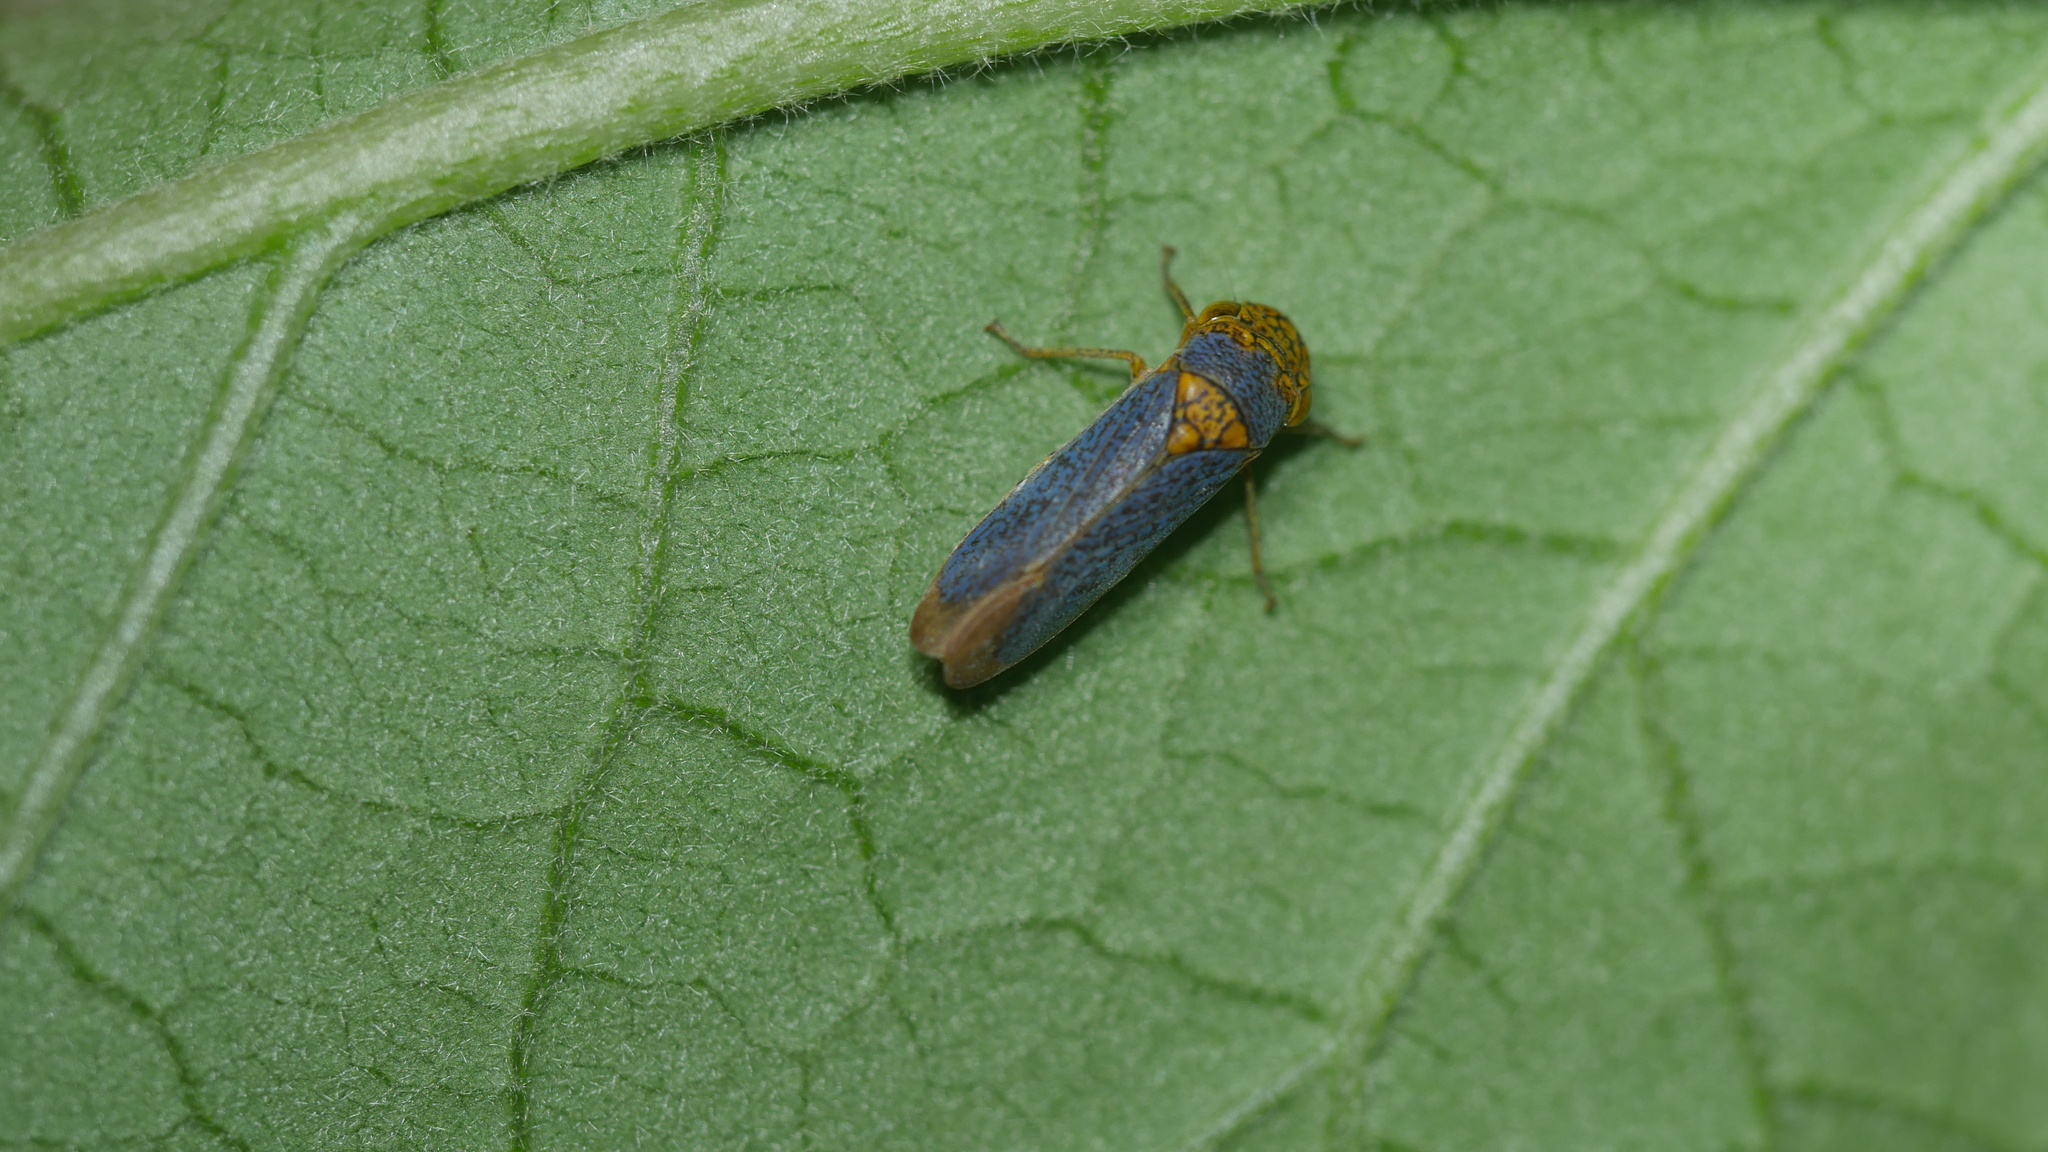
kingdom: Animalia
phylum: Arthropoda
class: Insecta
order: Hemiptera
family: Cicadellidae
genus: Oncometopia
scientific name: Oncometopia orbona
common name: Broad-headed sharpshooter
